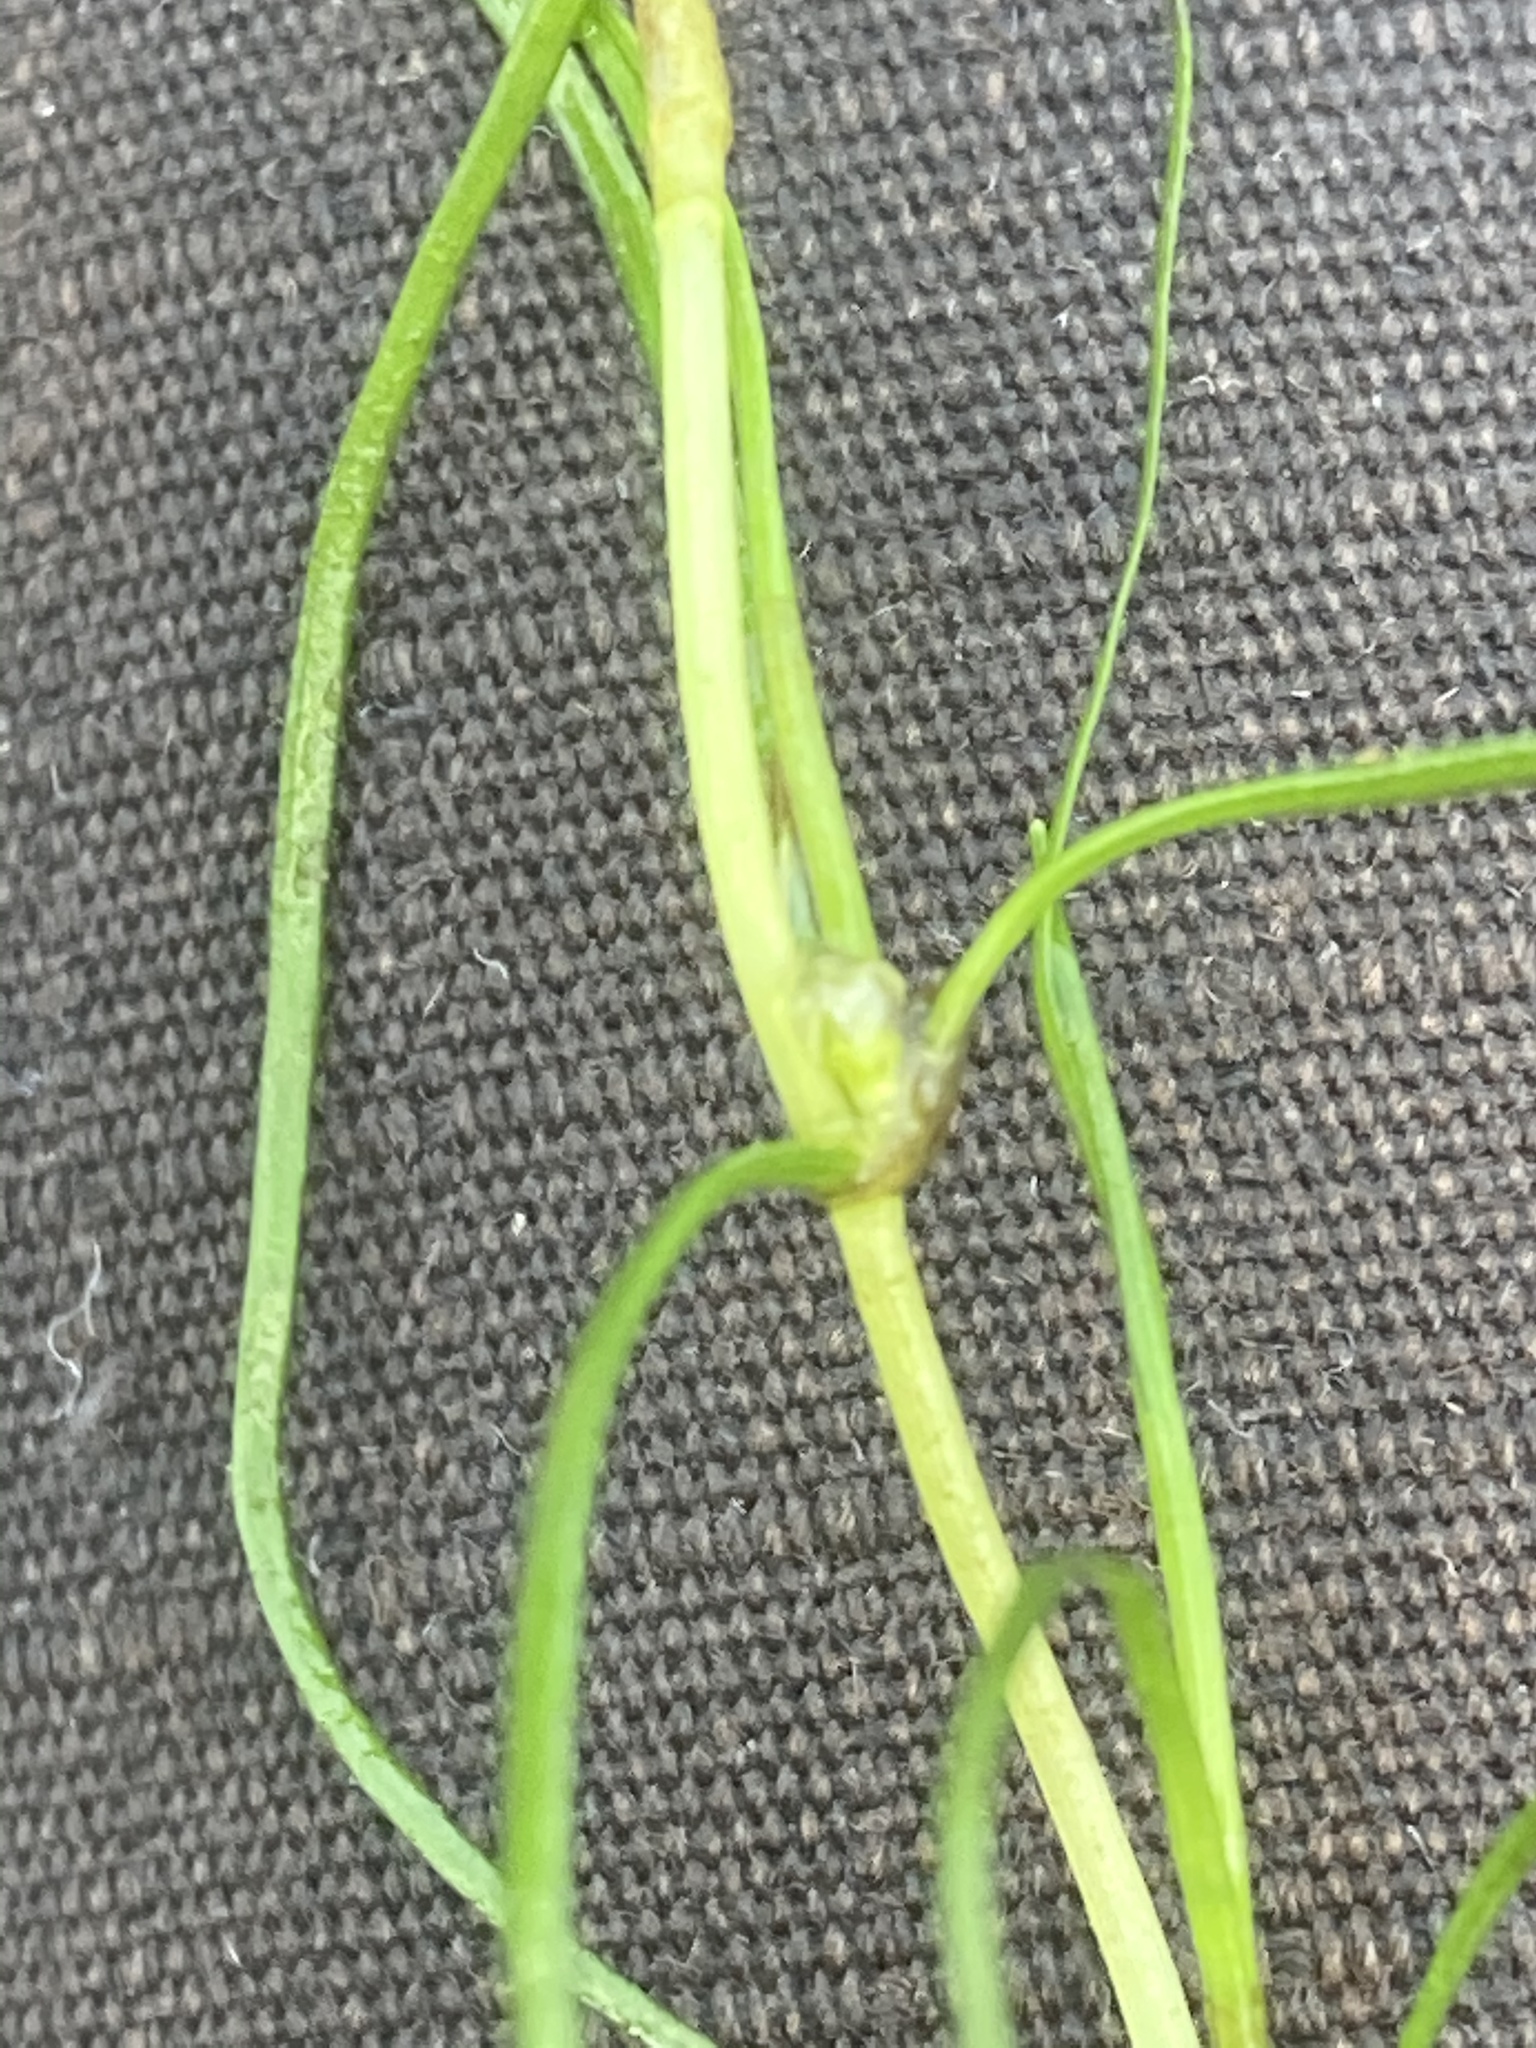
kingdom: Plantae
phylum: Tracheophyta
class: Liliopsida
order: Alismatales
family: Potamogetonaceae
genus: Zannichellia
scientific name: Zannichellia palustris
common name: Horned pondweed
